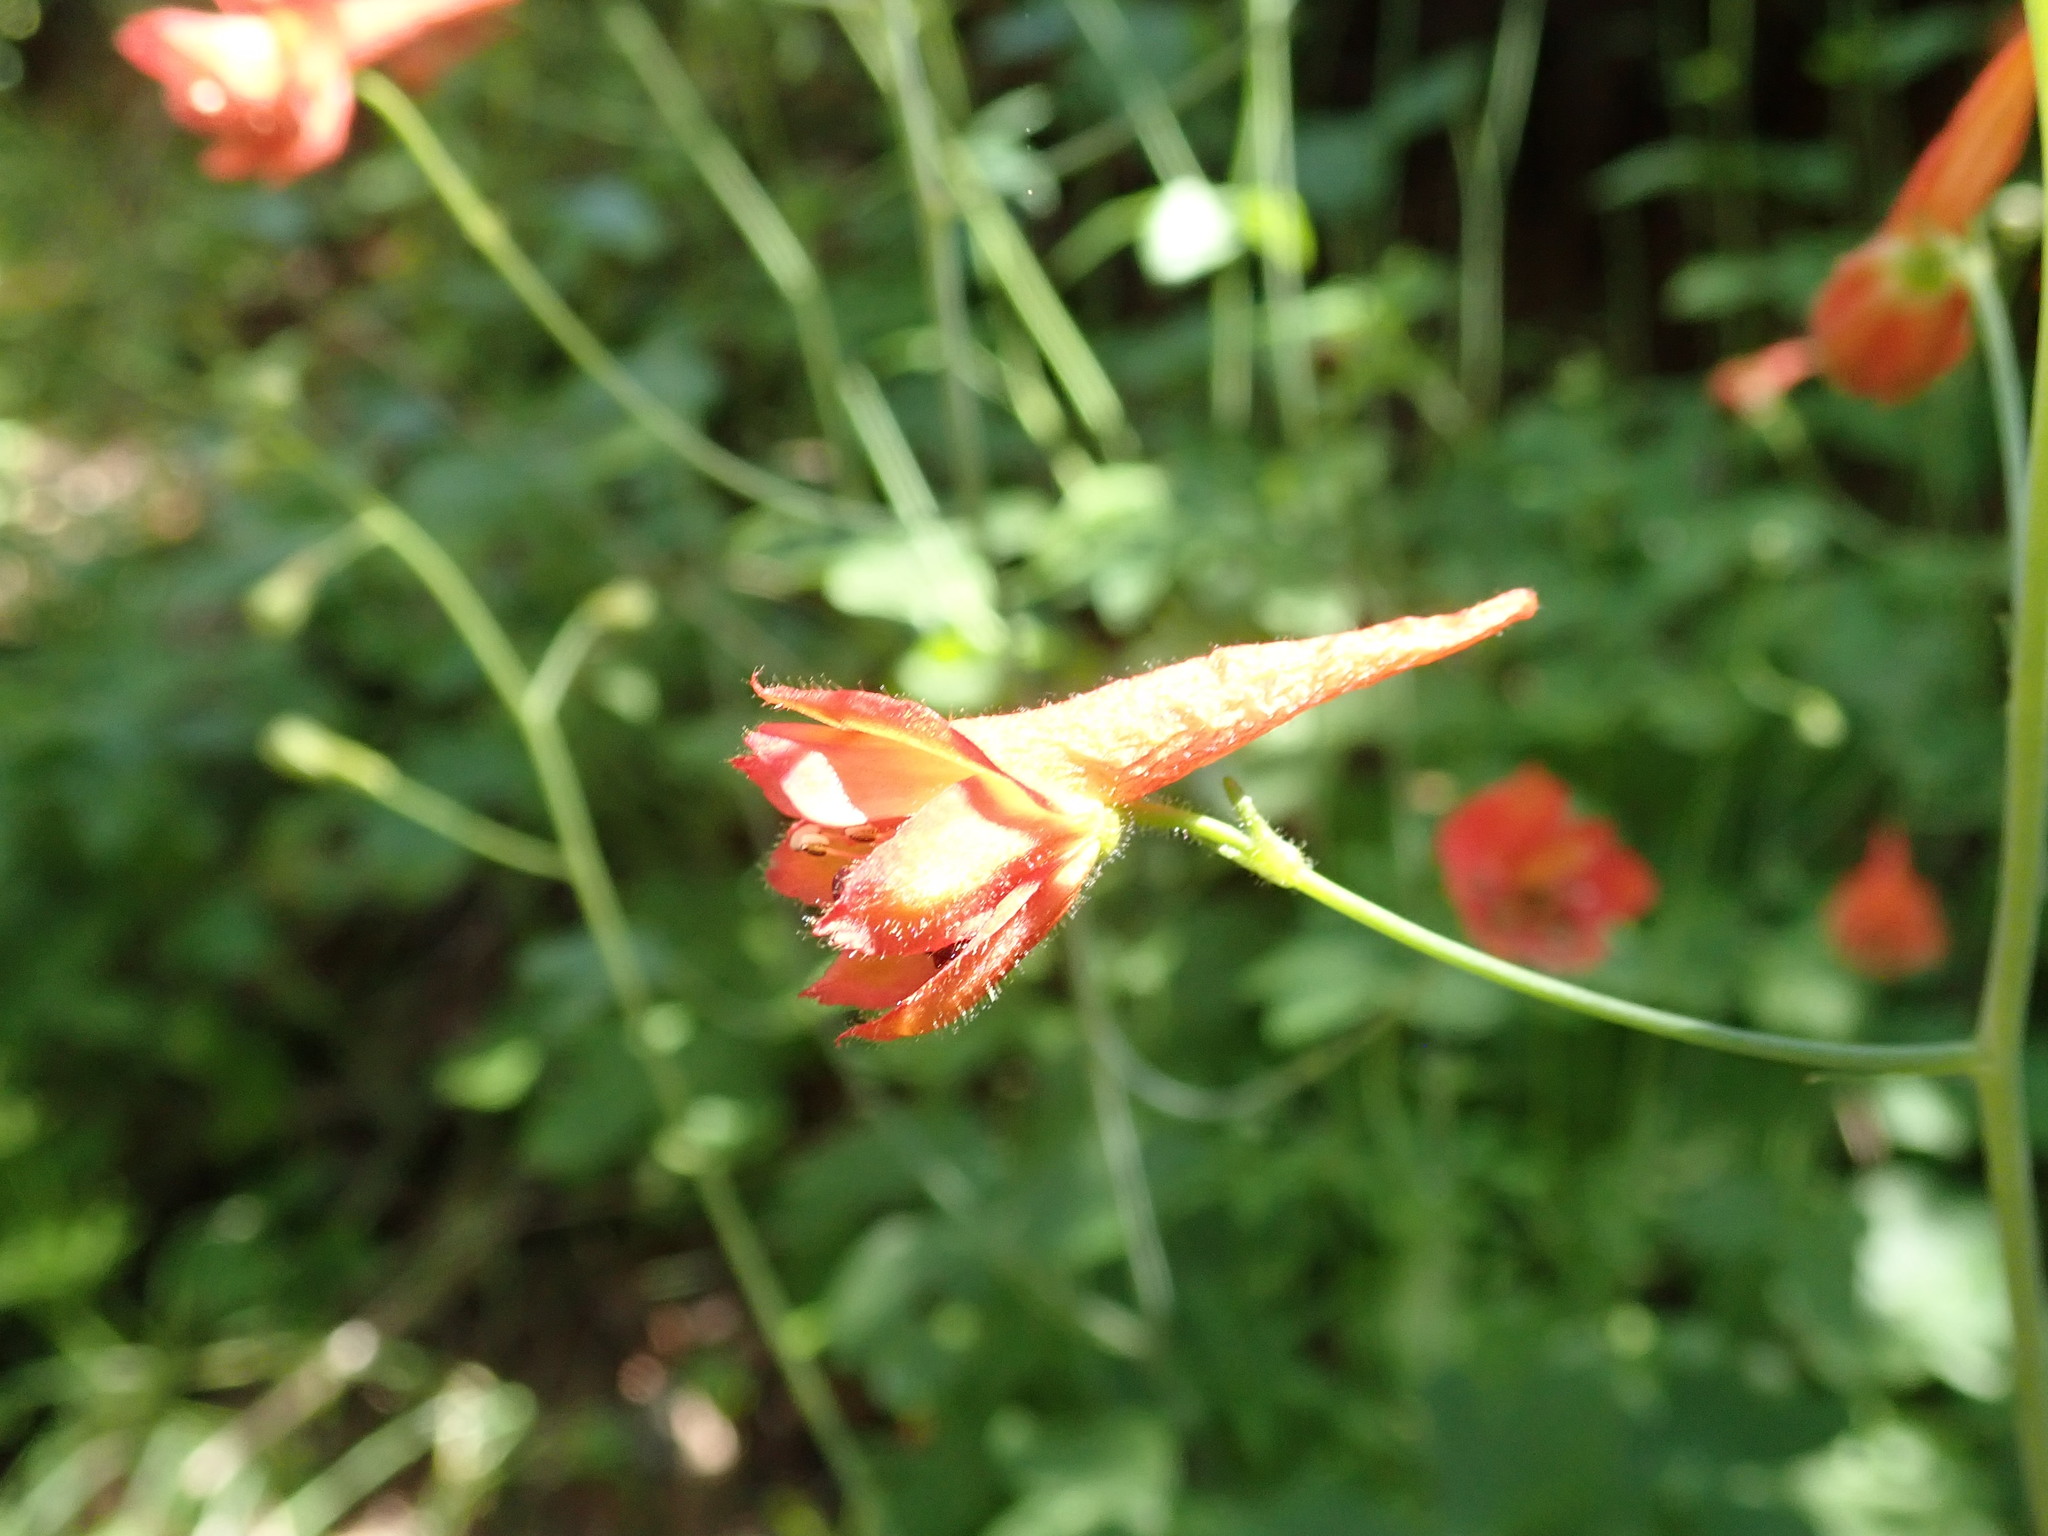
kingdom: Plantae
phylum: Tracheophyta
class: Magnoliopsida
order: Ranunculales
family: Ranunculaceae
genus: Delphinium
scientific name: Delphinium nudicaule
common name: Red larkspur
